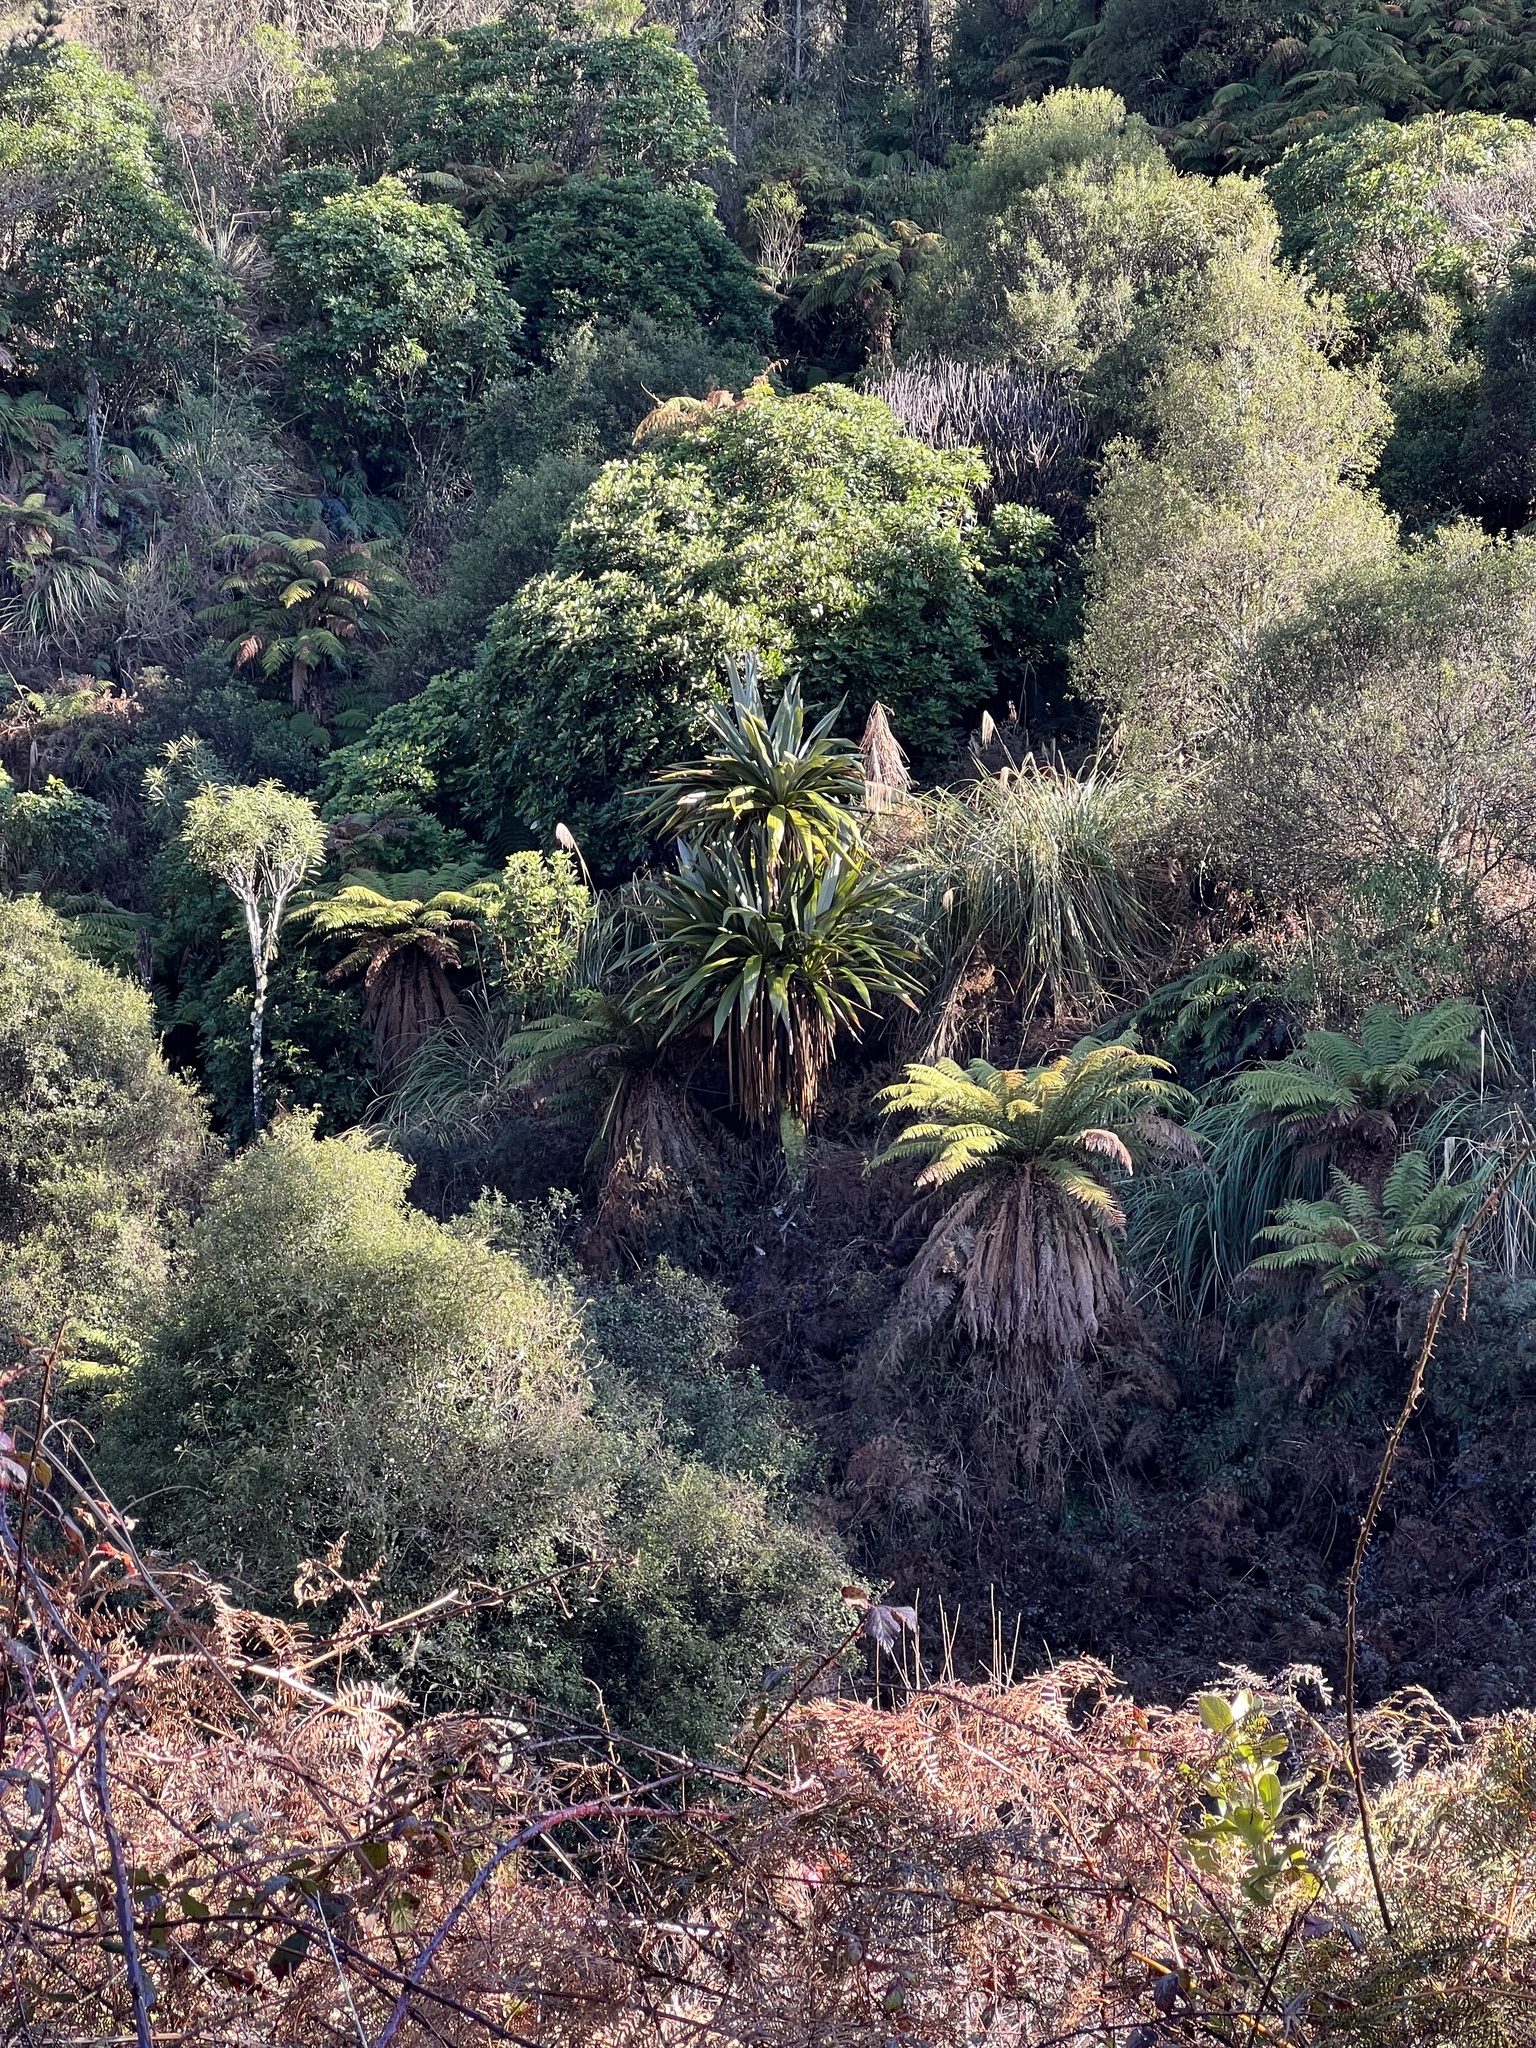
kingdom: Plantae
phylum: Tracheophyta
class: Liliopsida
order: Asparagales
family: Asparagaceae
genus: Cordyline
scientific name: Cordyline indivisa
